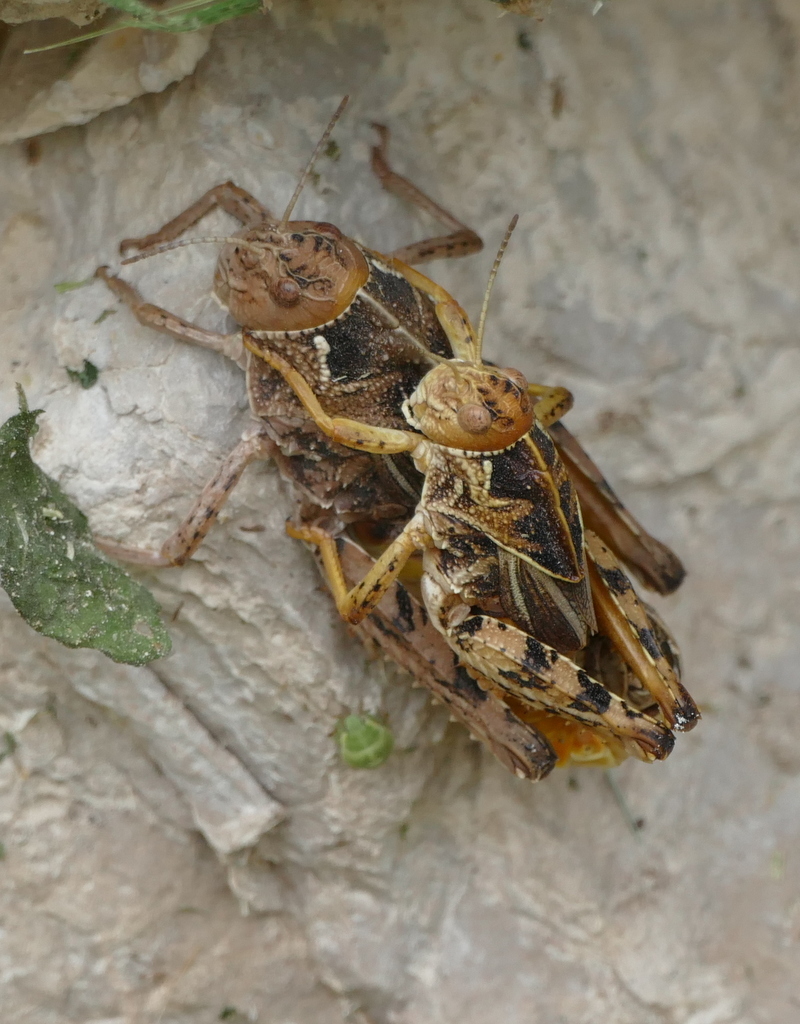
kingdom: Animalia
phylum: Arthropoda
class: Insecta
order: Orthoptera
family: Pamphagidae
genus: Prionotropis
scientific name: Prionotropis hystrix
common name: Eastern stone grasshopper
